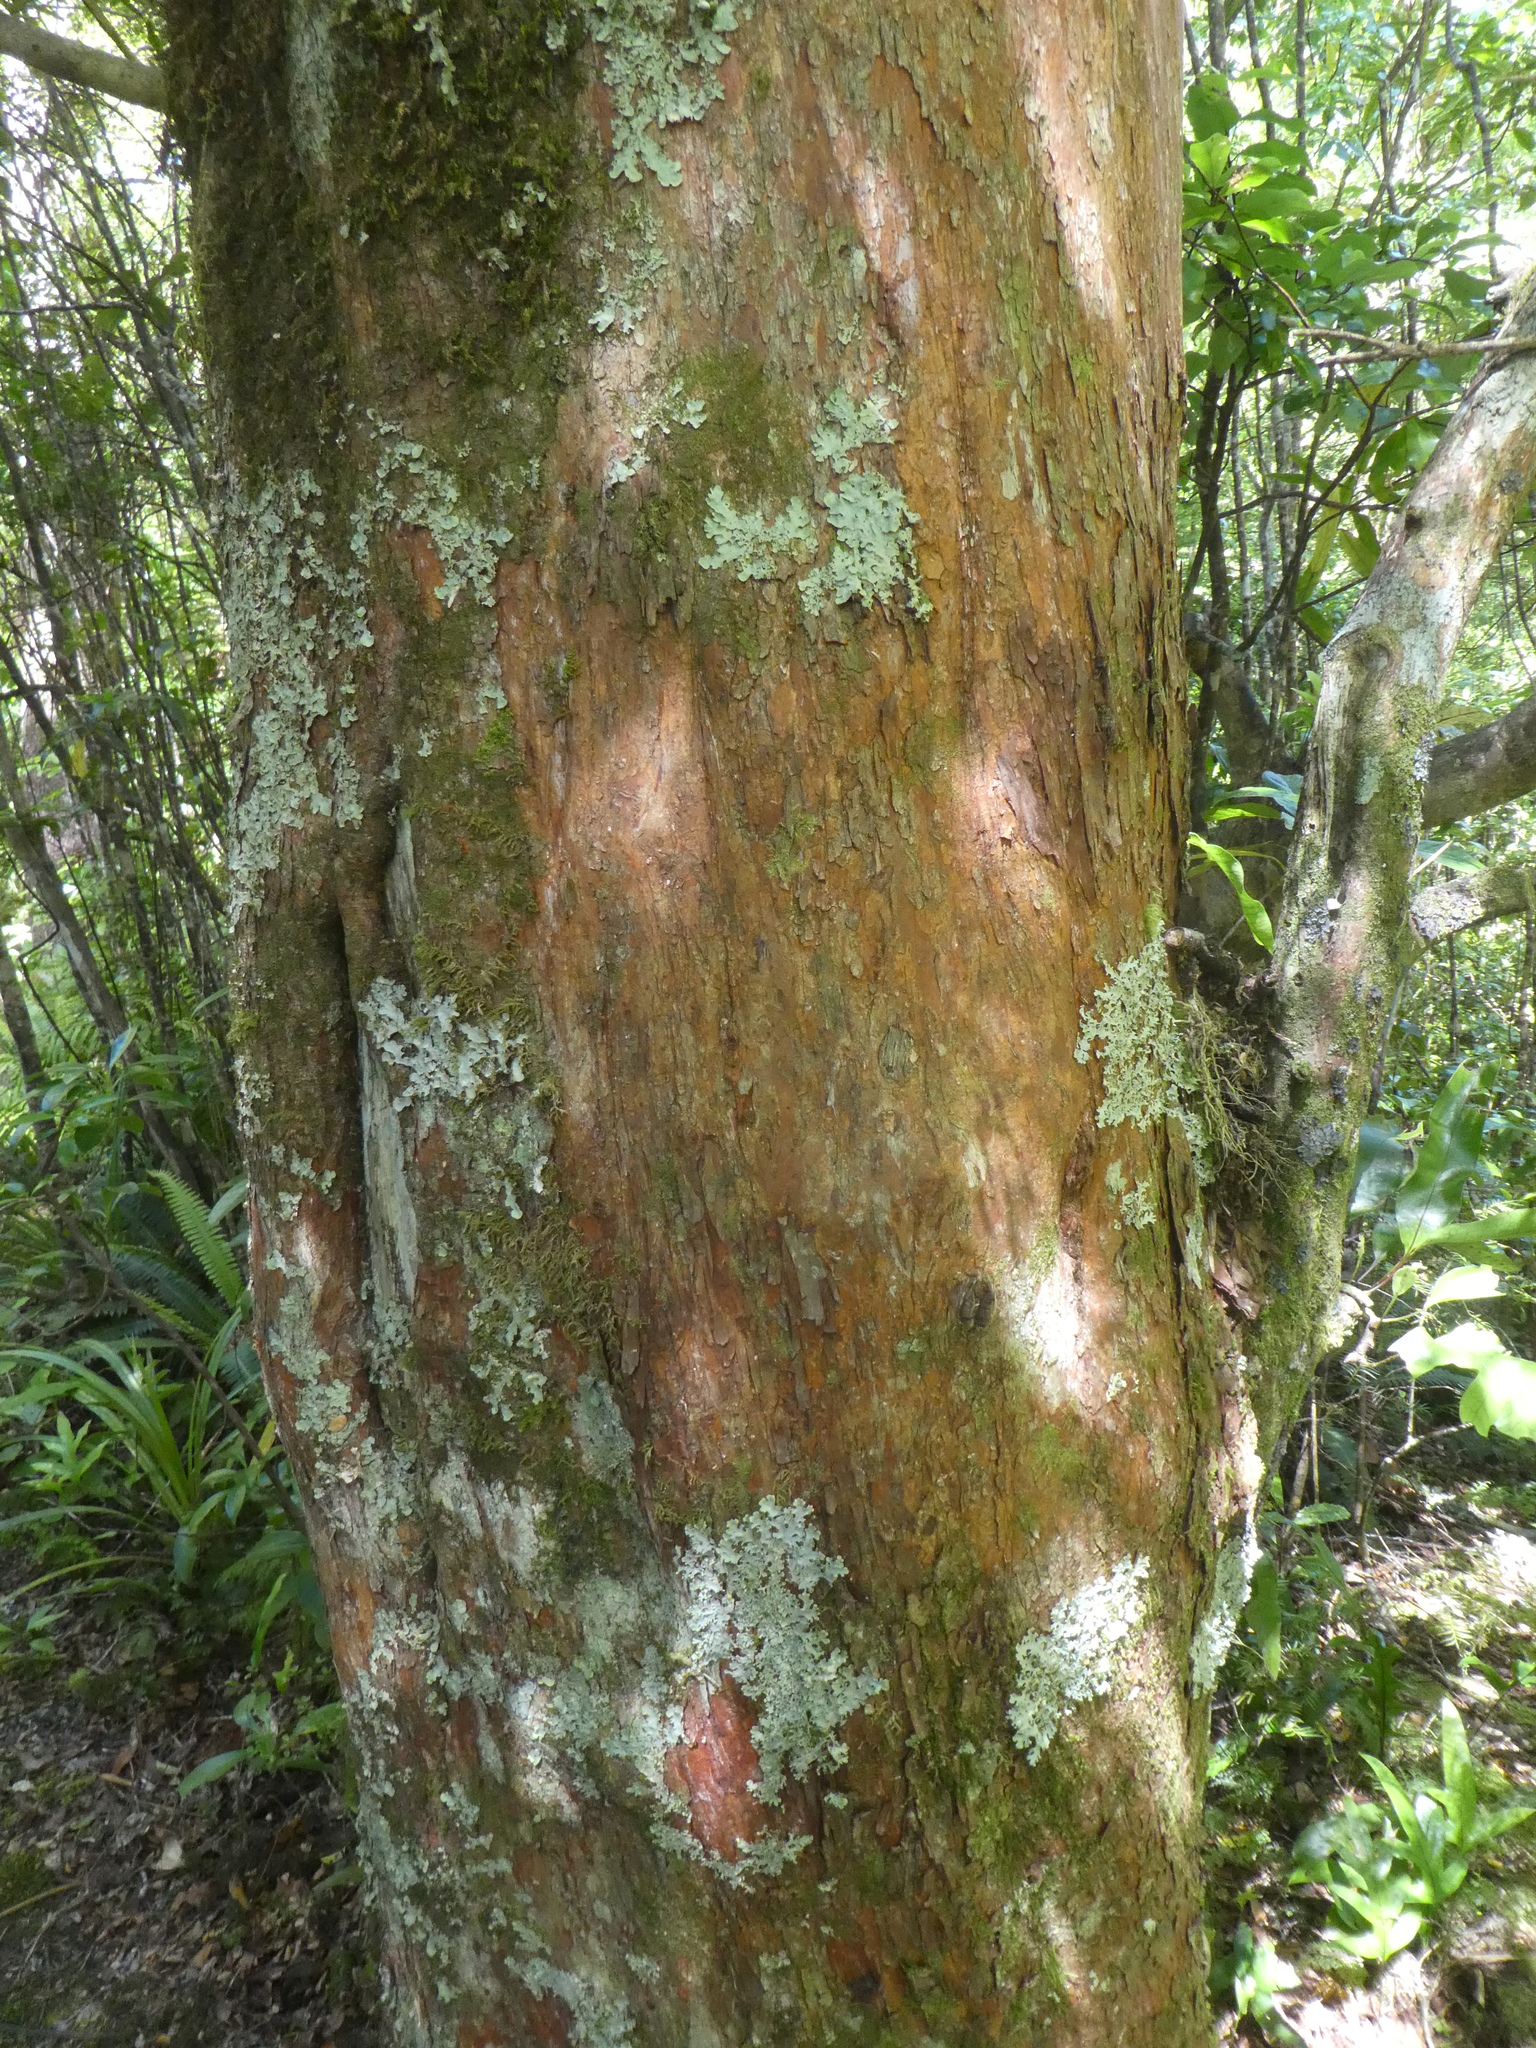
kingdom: Plantae
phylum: Tracheophyta
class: Pinopsida
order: Pinales
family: Podocarpaceae
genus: Podocarpus
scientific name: Podocarpus laetus
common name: Hall's totara
